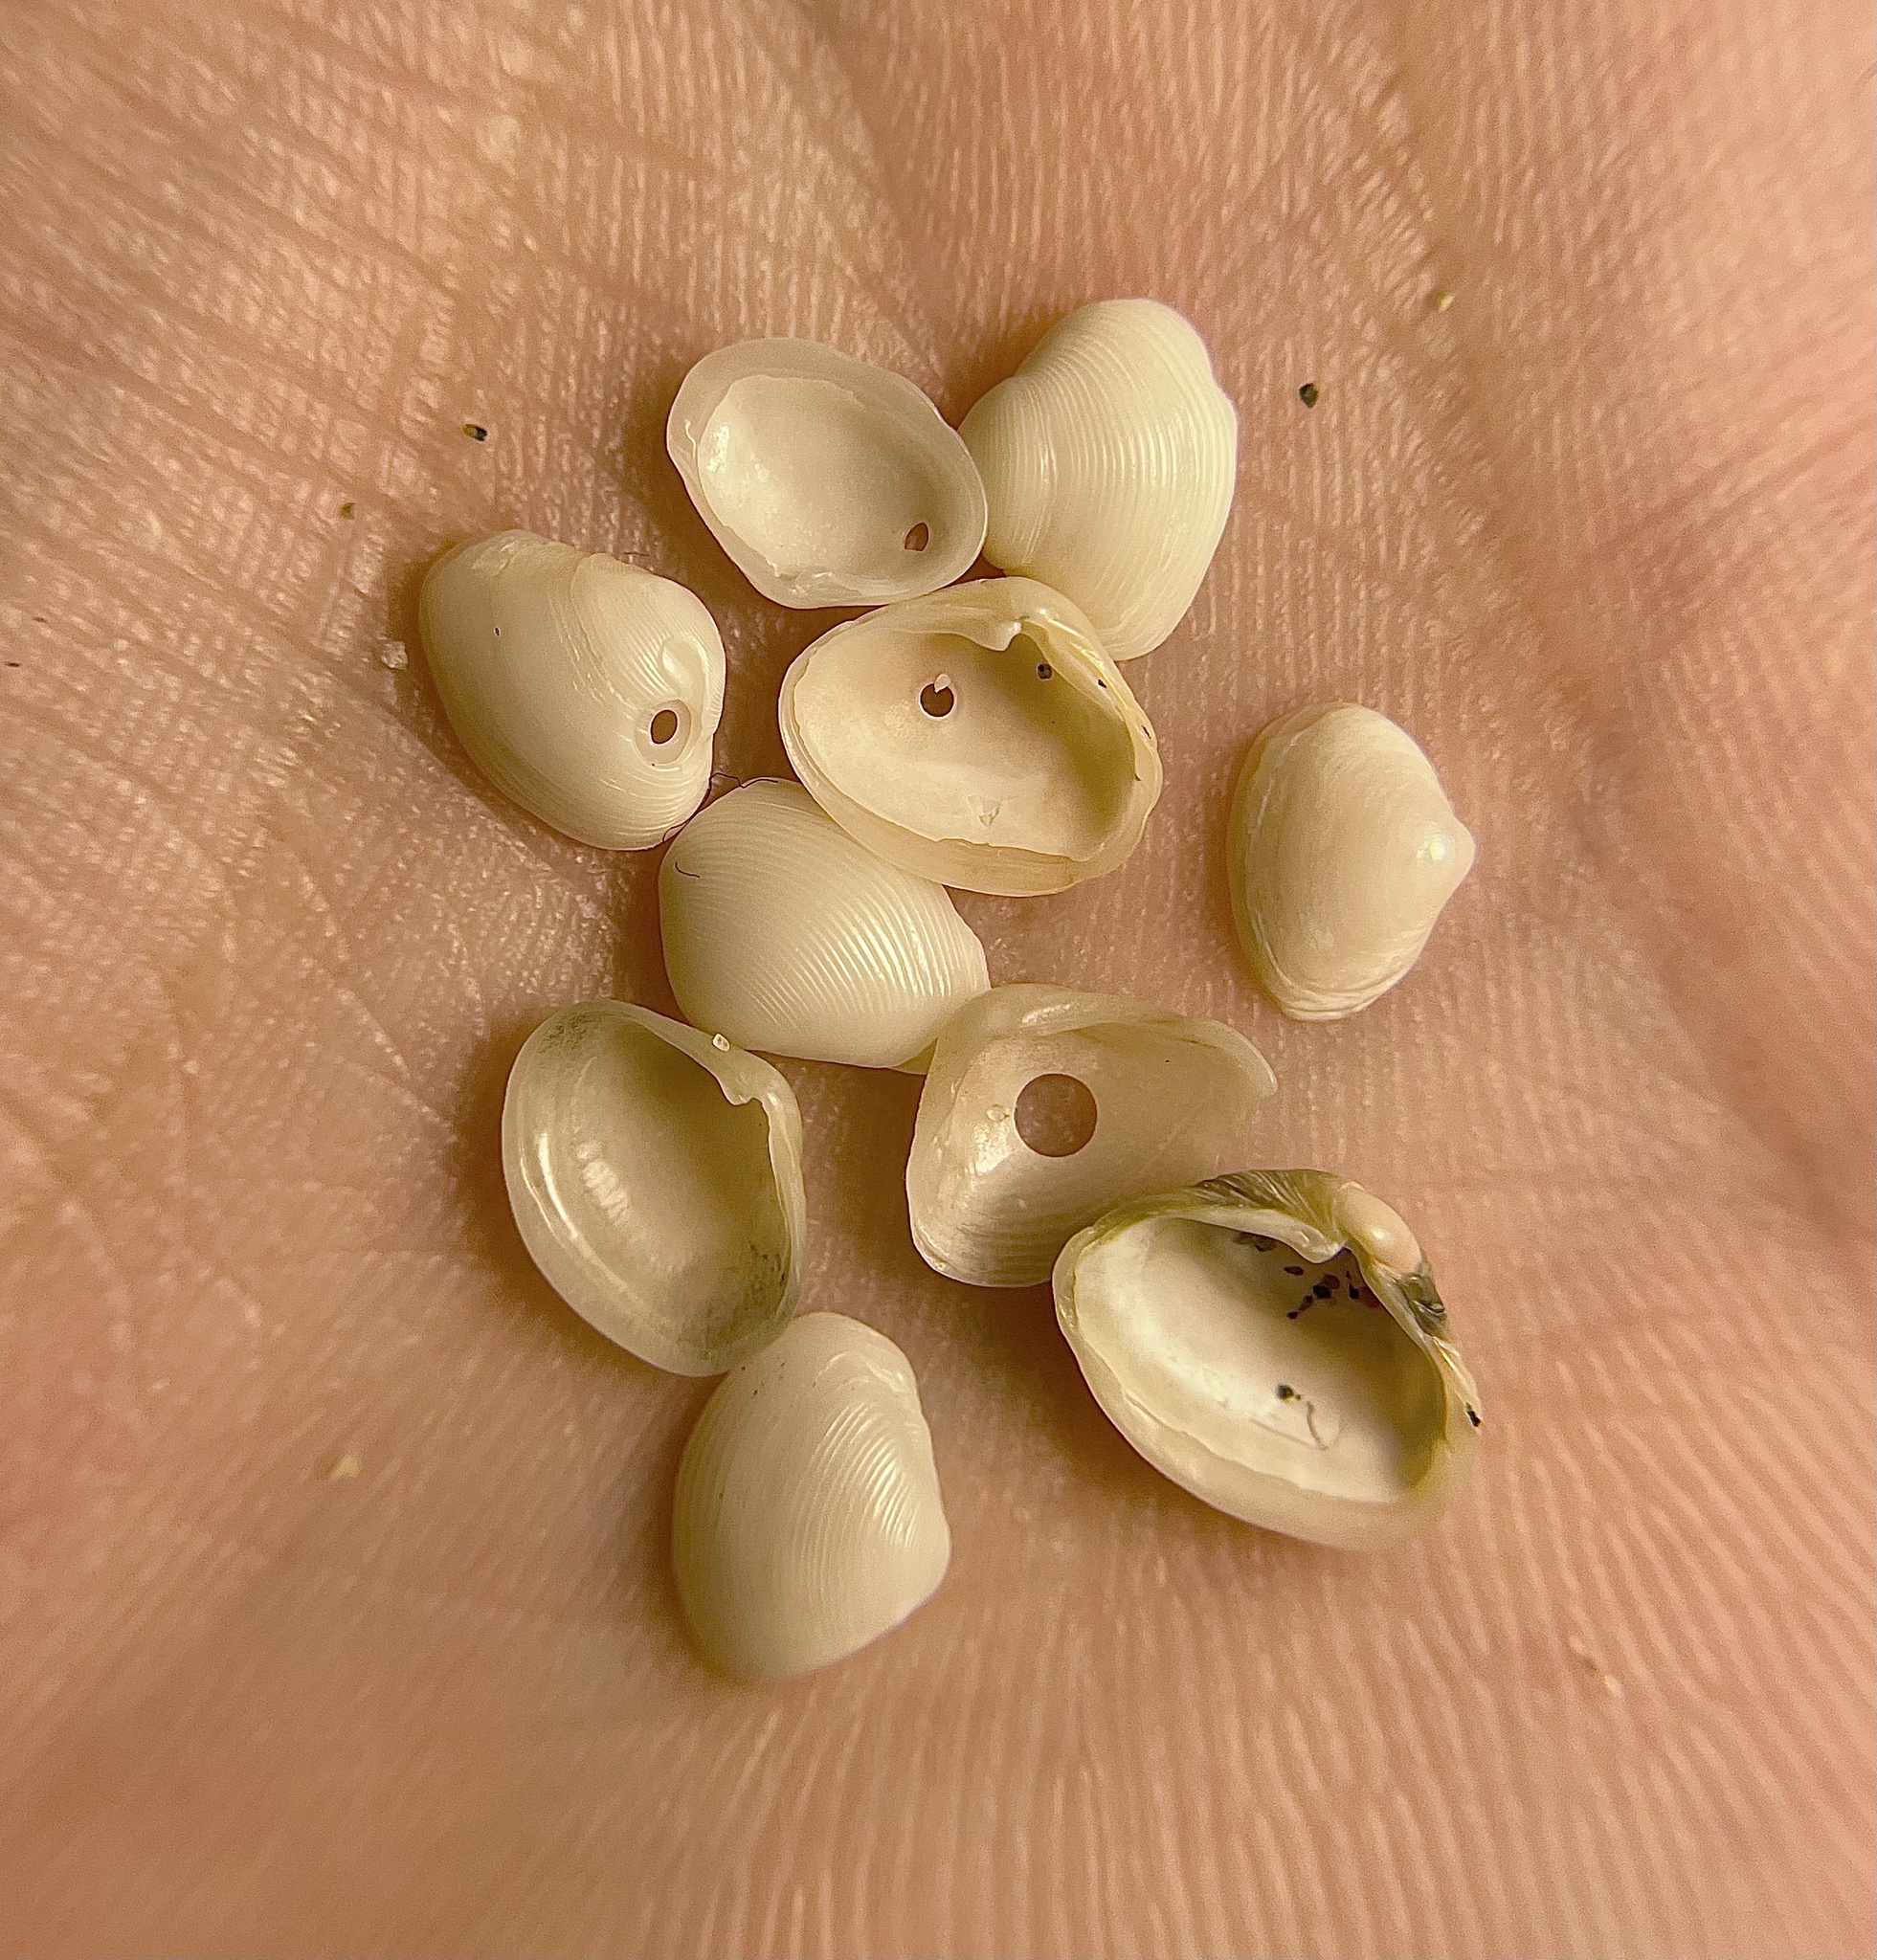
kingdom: Animalia
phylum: Mollusca
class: Bivalvia
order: Myida
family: Corbulidae
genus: Varicorbula
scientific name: Varicorbula gibba
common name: European clam
